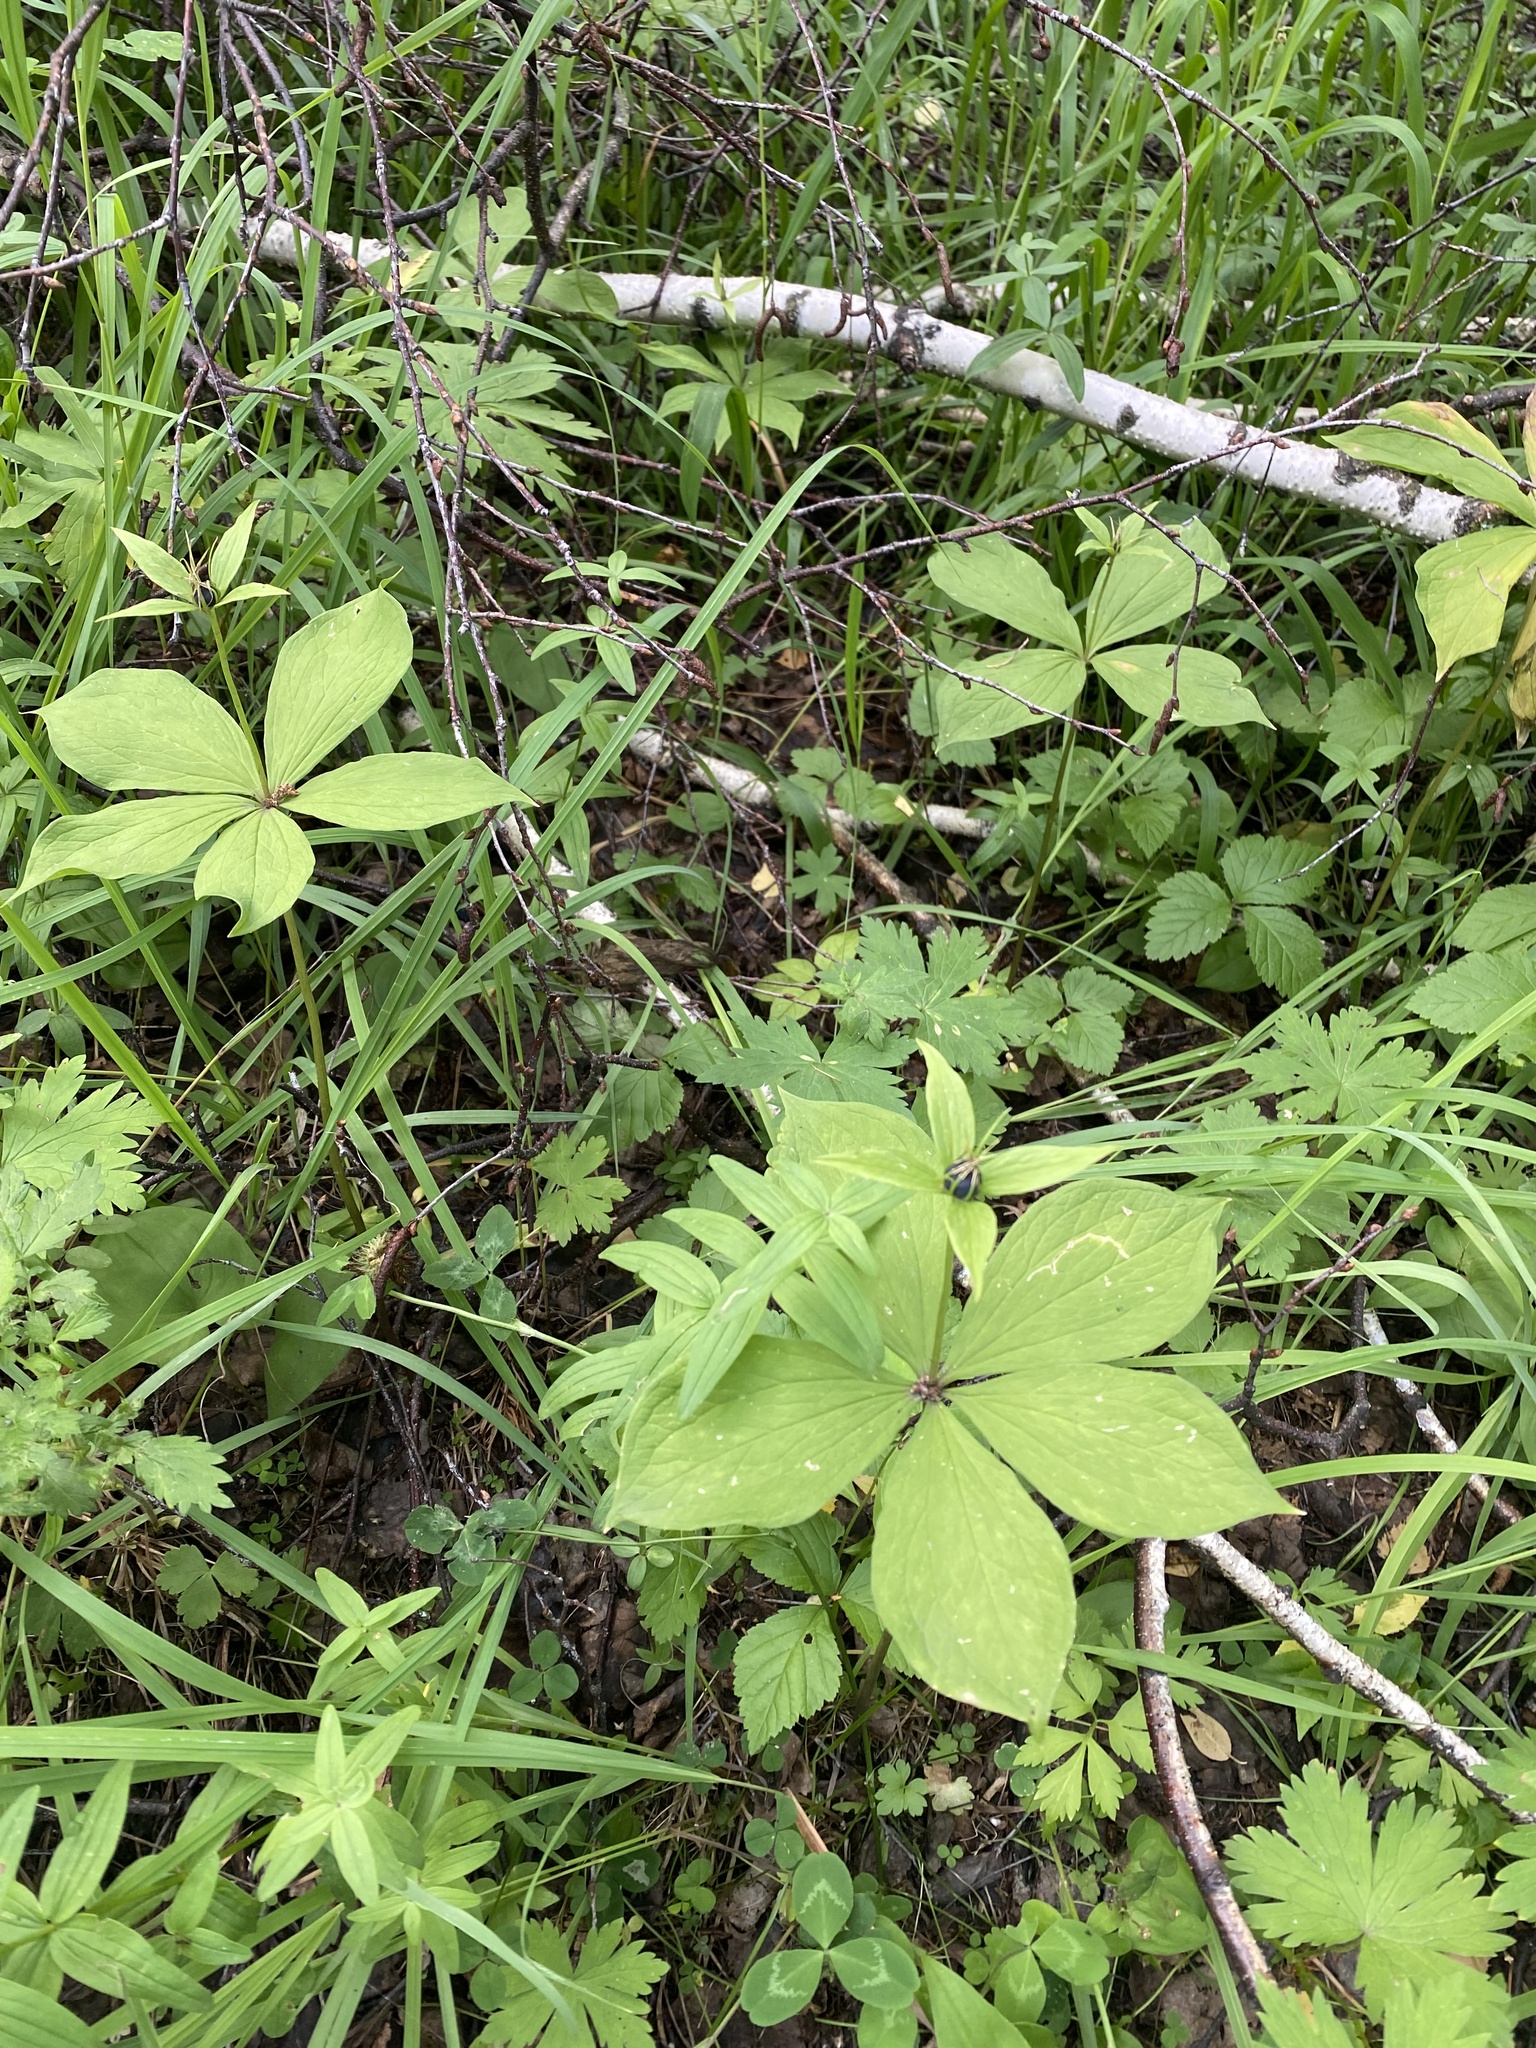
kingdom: Plantae
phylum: Tracheophyta
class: Liliopsida
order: Liliales
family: Melanthiaceae
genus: Paris
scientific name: Paris verticillata
